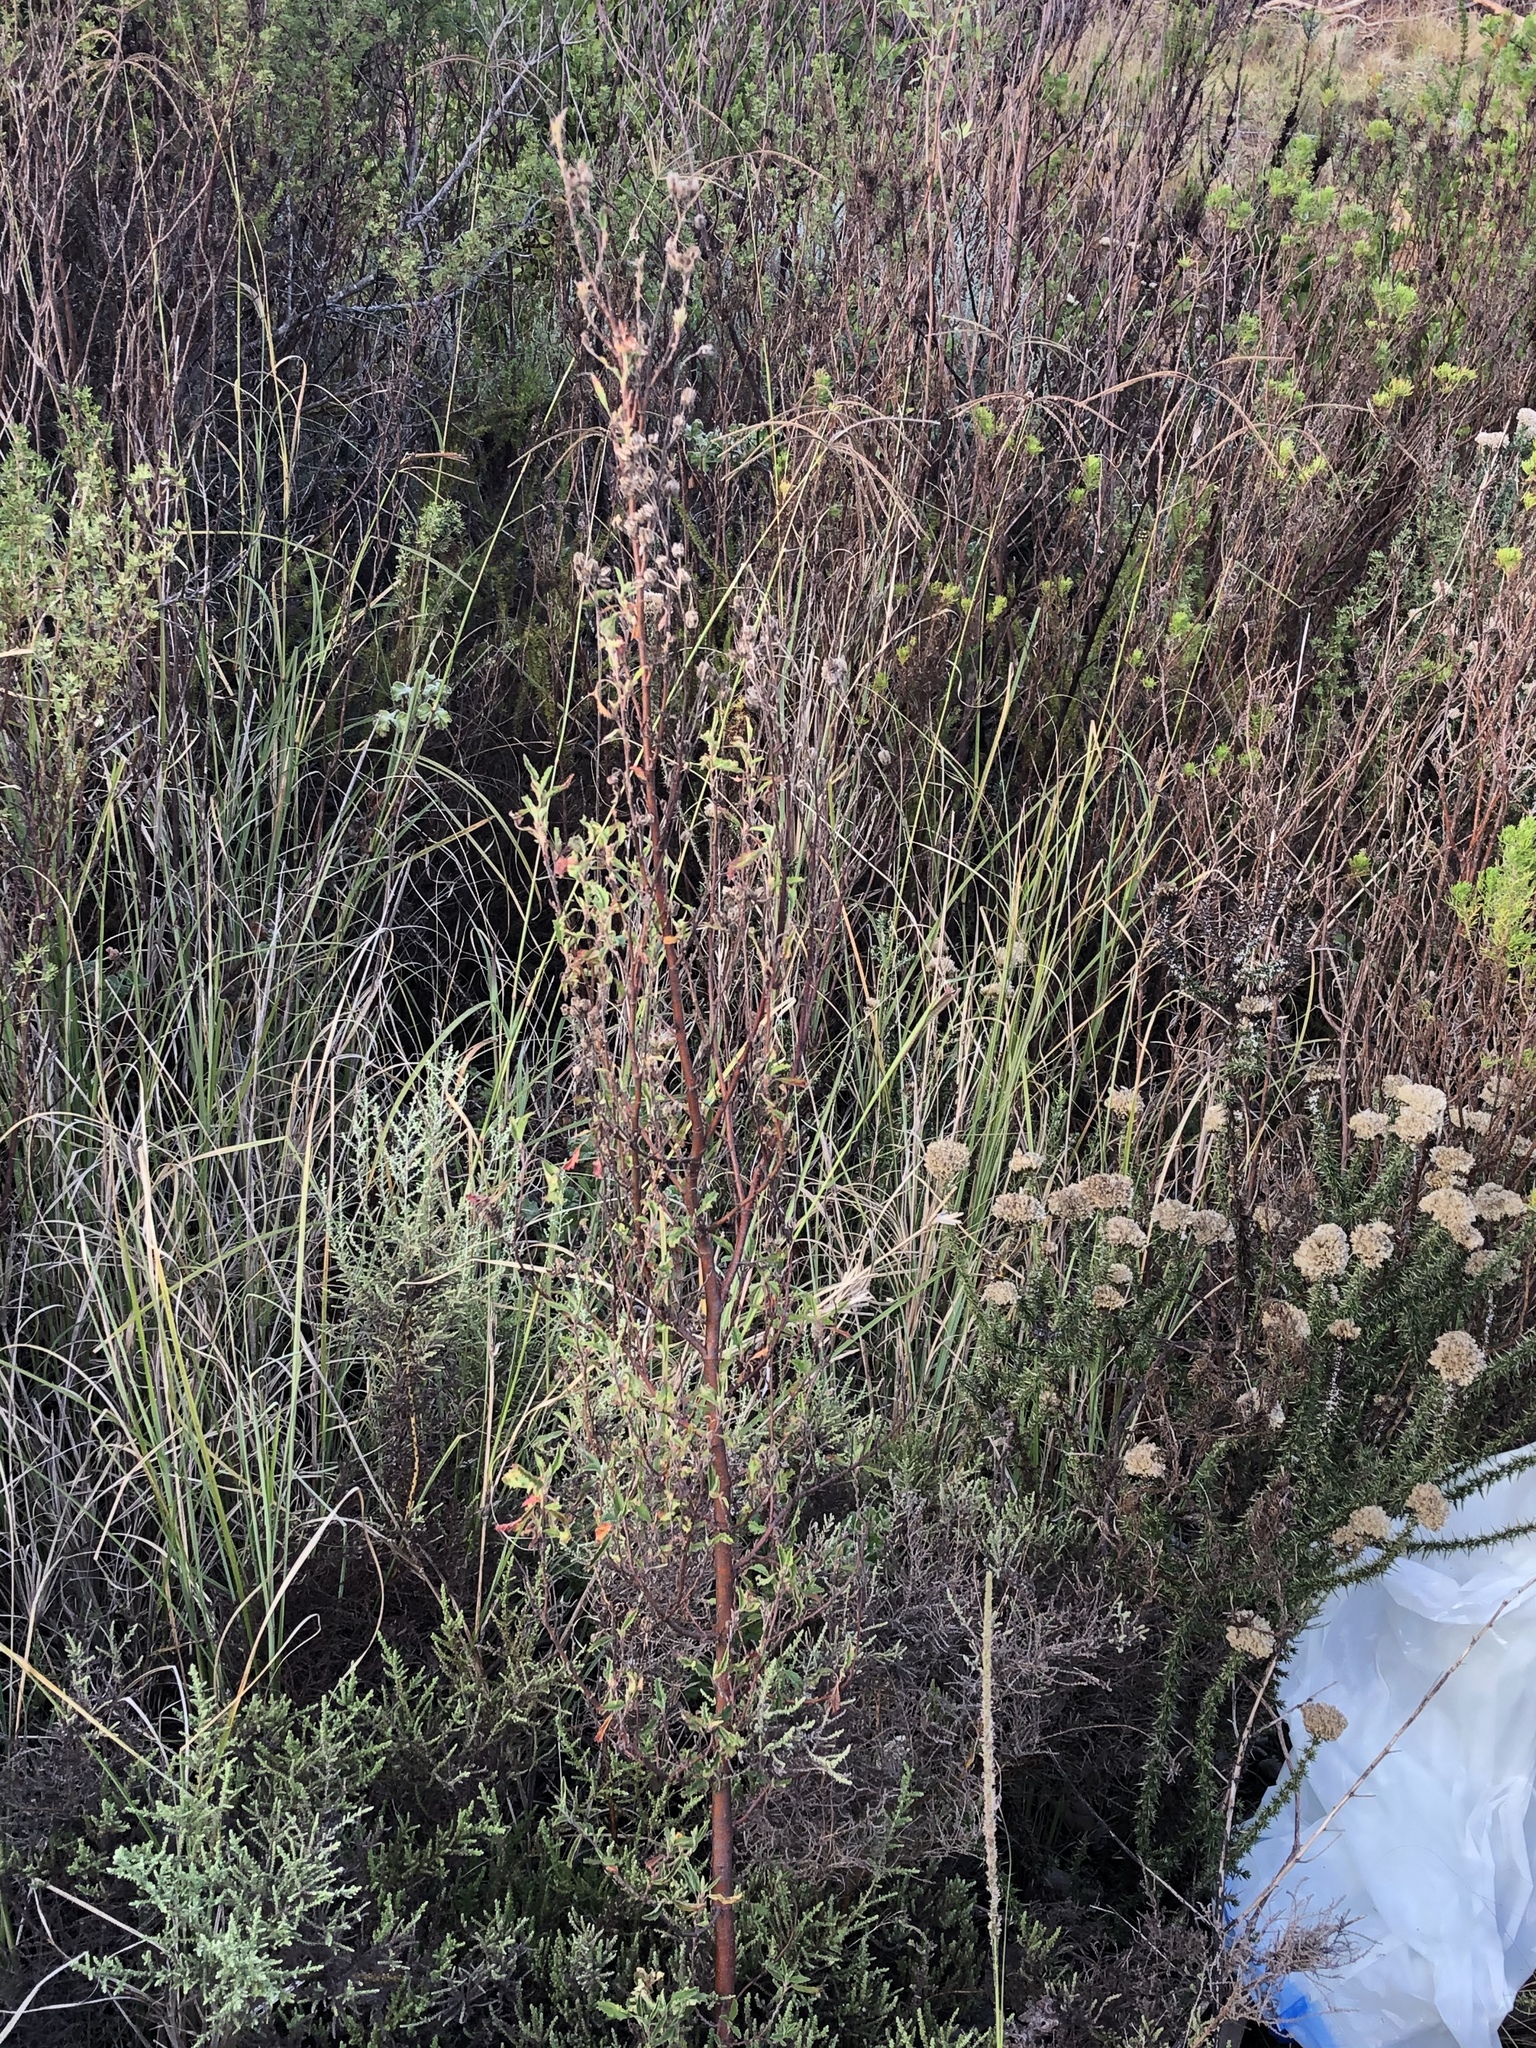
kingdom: Plantae
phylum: Tracheophyta
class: Magnoliopsida
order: Malvales
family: Malvaceae
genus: Hermannia
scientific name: Hermannia hyssopifolia
